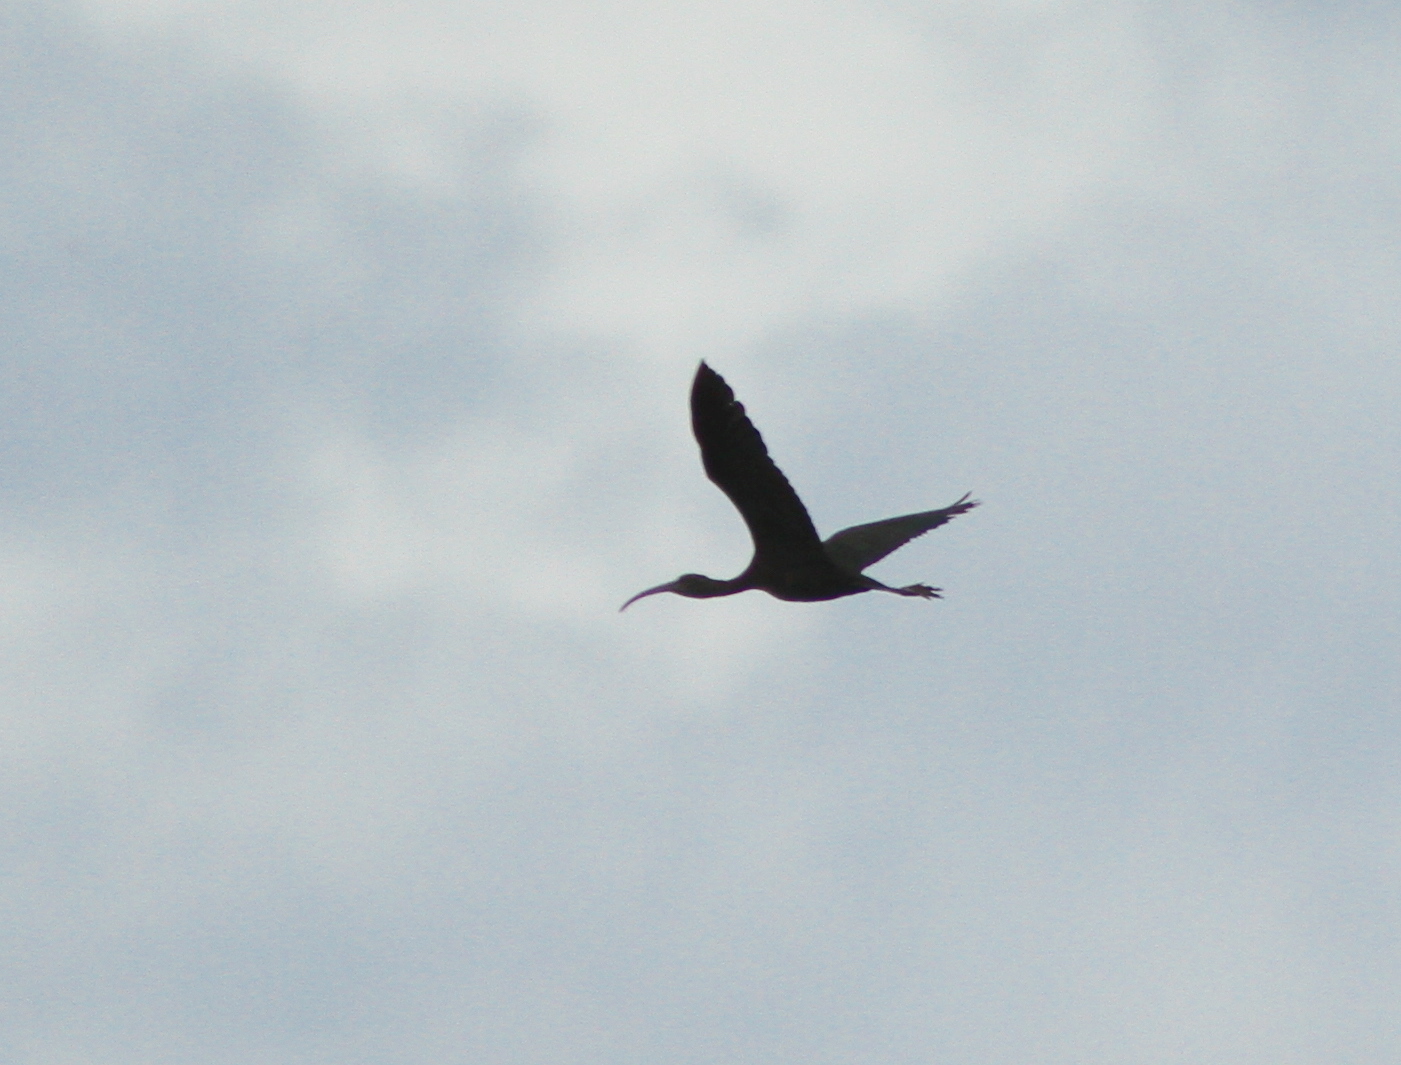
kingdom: Animalia
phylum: Chordata
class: Aves
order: Pelecaniformes
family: Threskiornithidae
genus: Plegadis
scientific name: Plegadis falcinellus
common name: Glossy ibis
